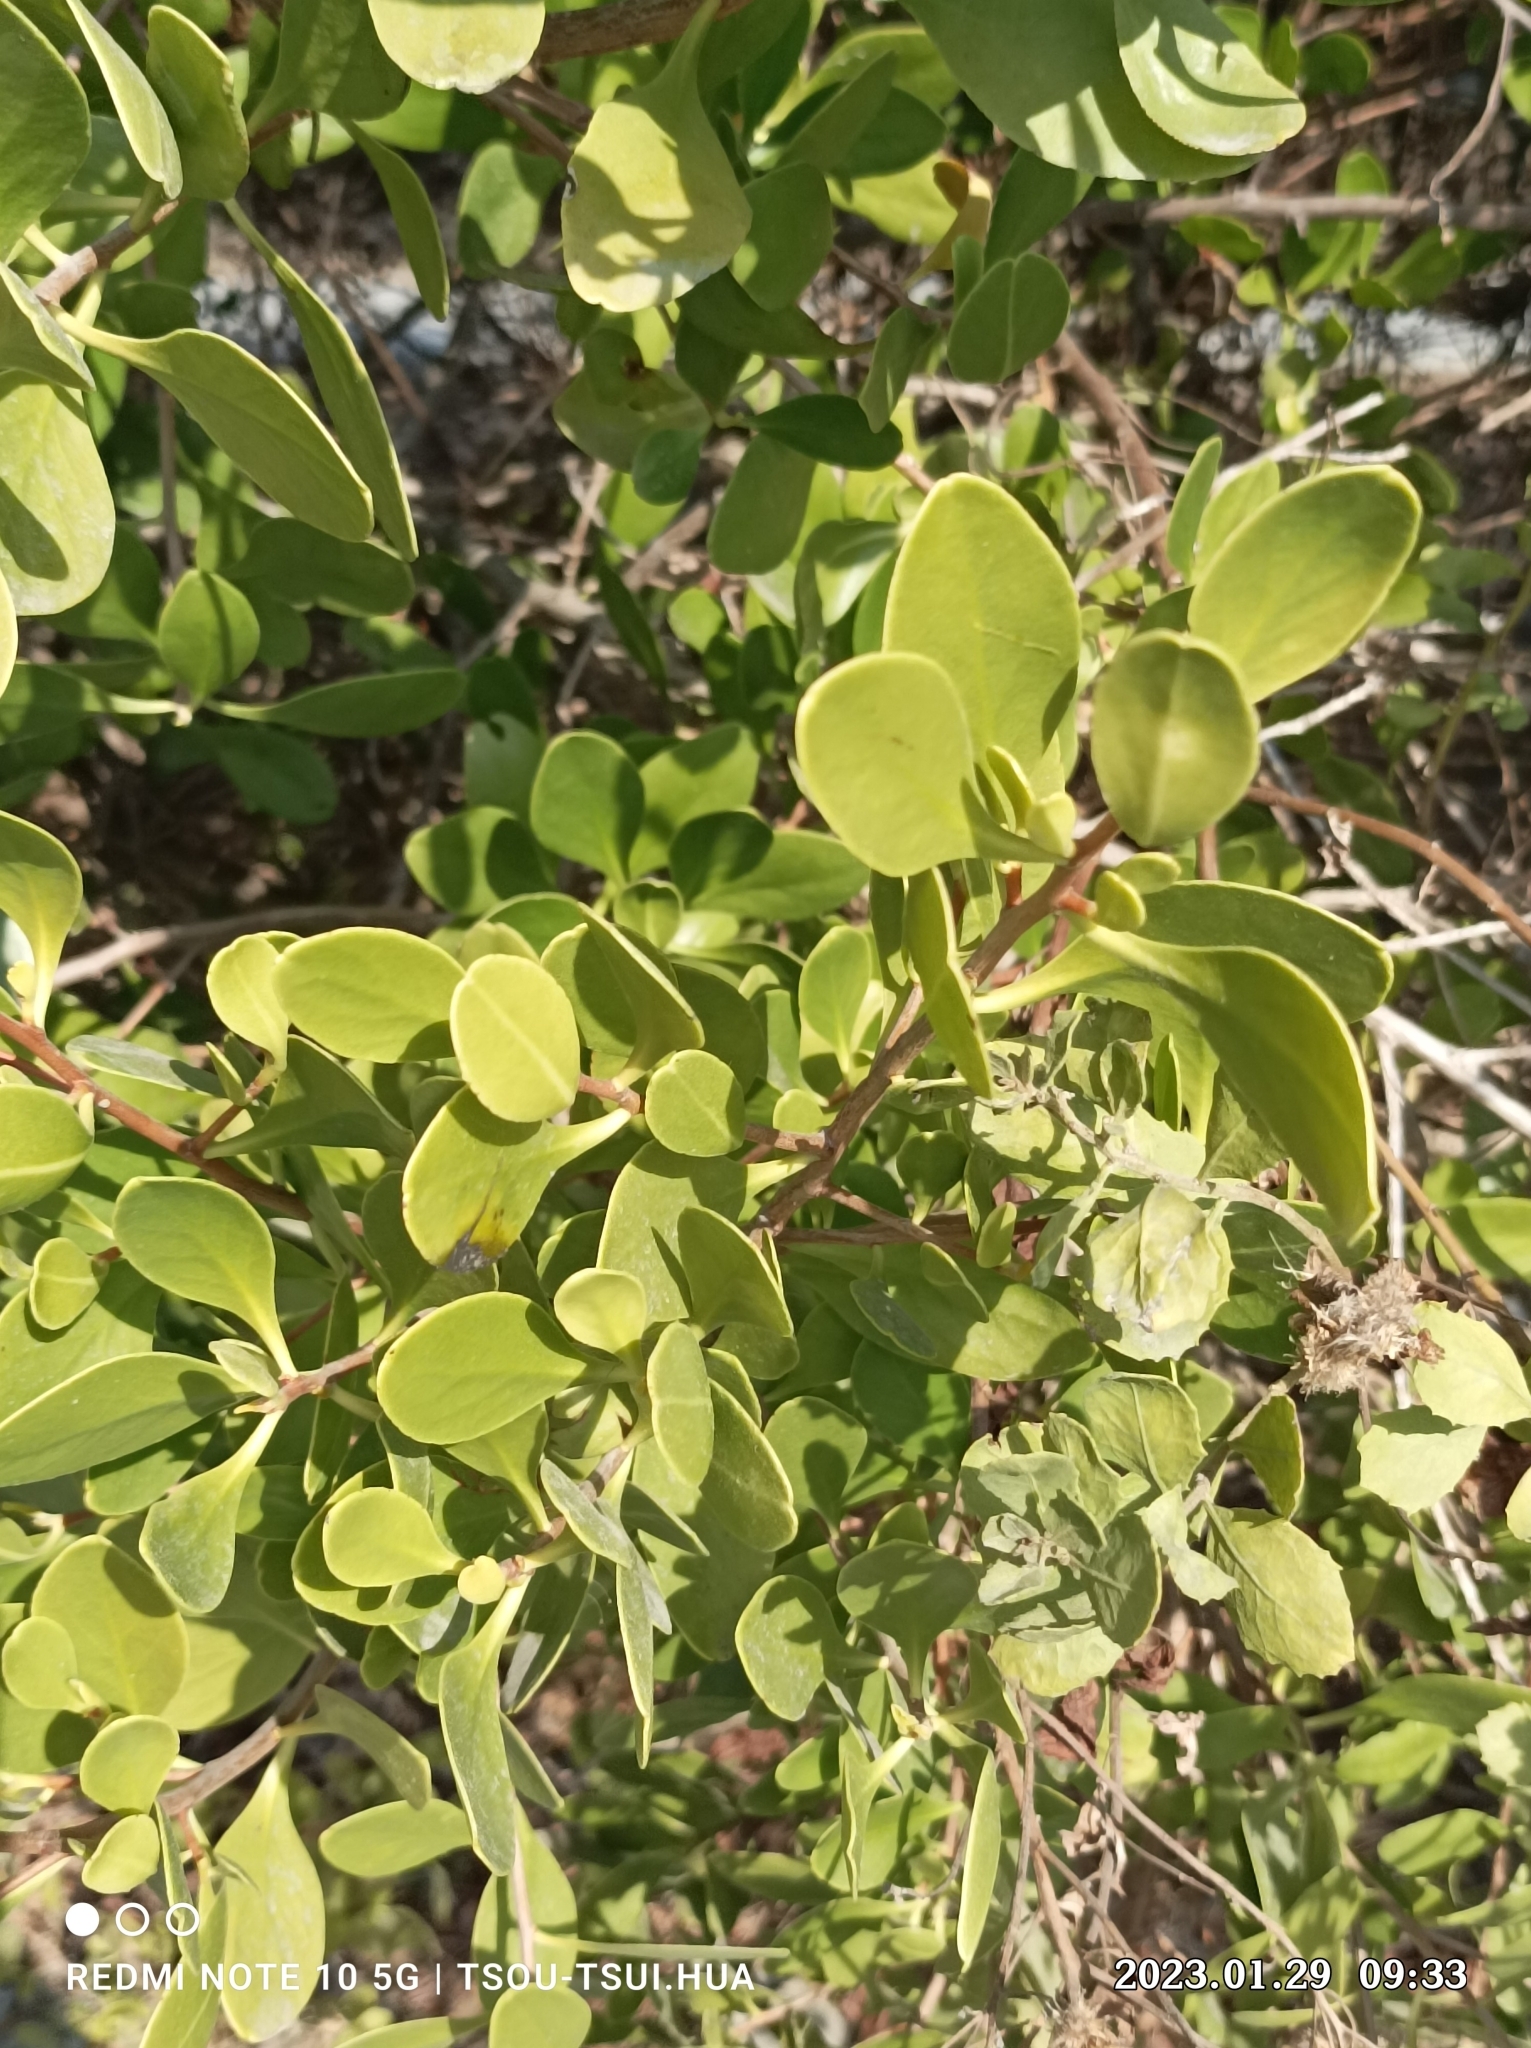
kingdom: Plantae
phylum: Tracheophyta
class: Magnoliopsida
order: Myrtales
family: Combretaceae
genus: Lumnitzera
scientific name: Lumnitzera racemosa
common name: White-flowered black mangrove
